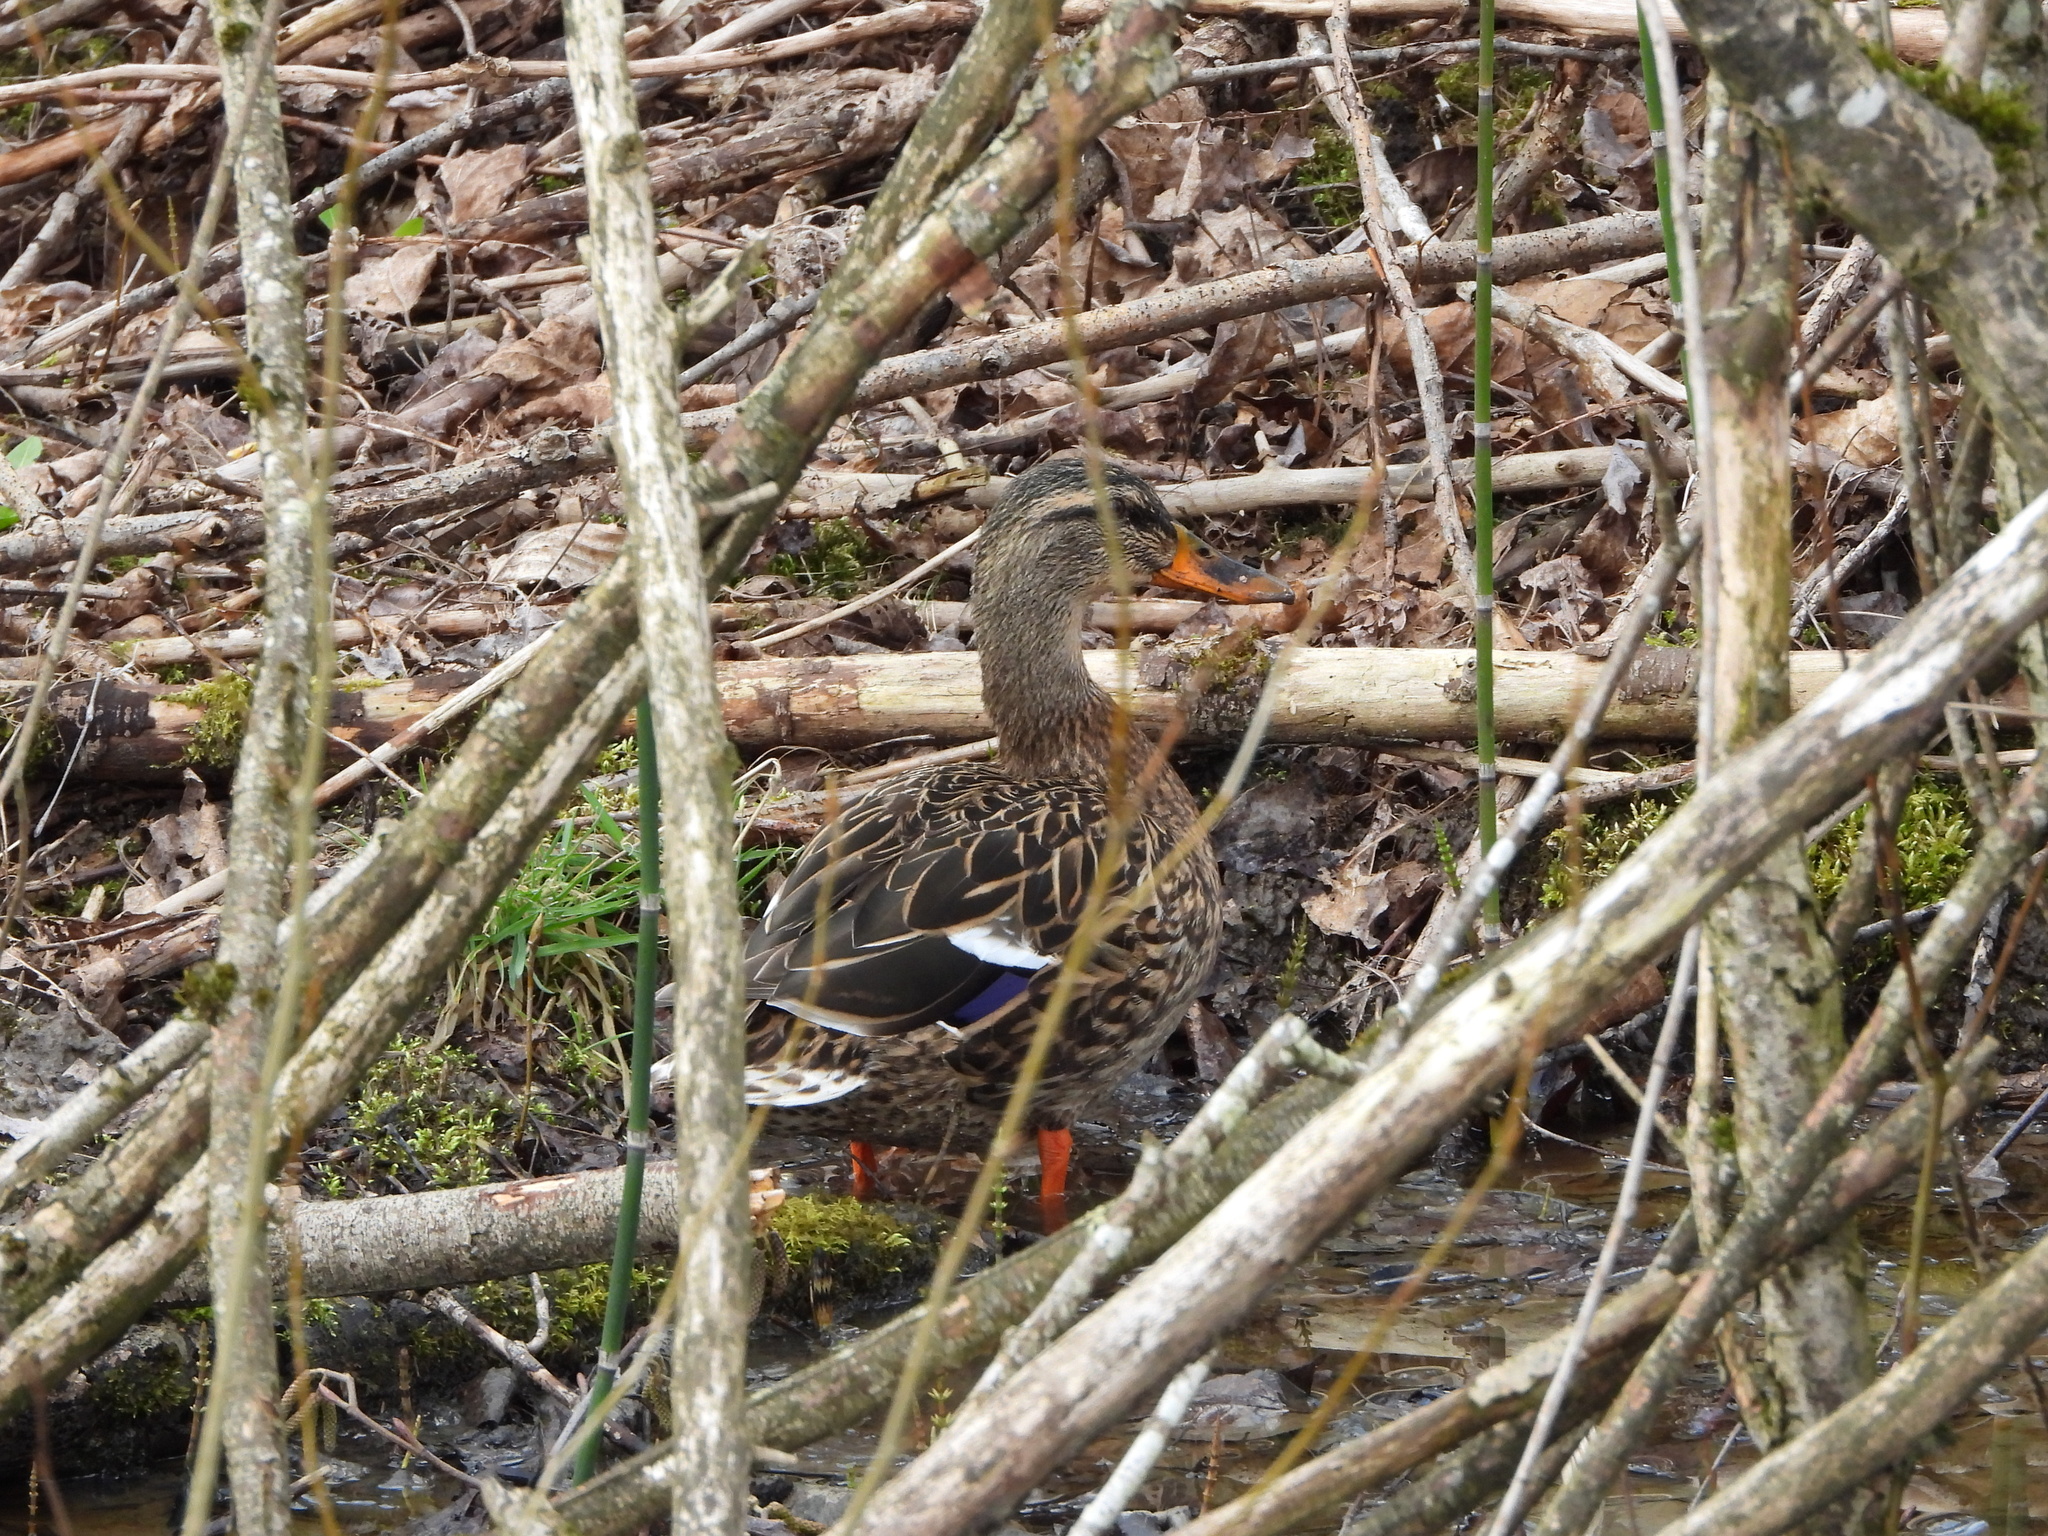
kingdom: Animalia
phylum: Chordata
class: Aves
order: Anseriformes
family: Anatidae
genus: Anas
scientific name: Anas platyrhynchos
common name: Mallard
